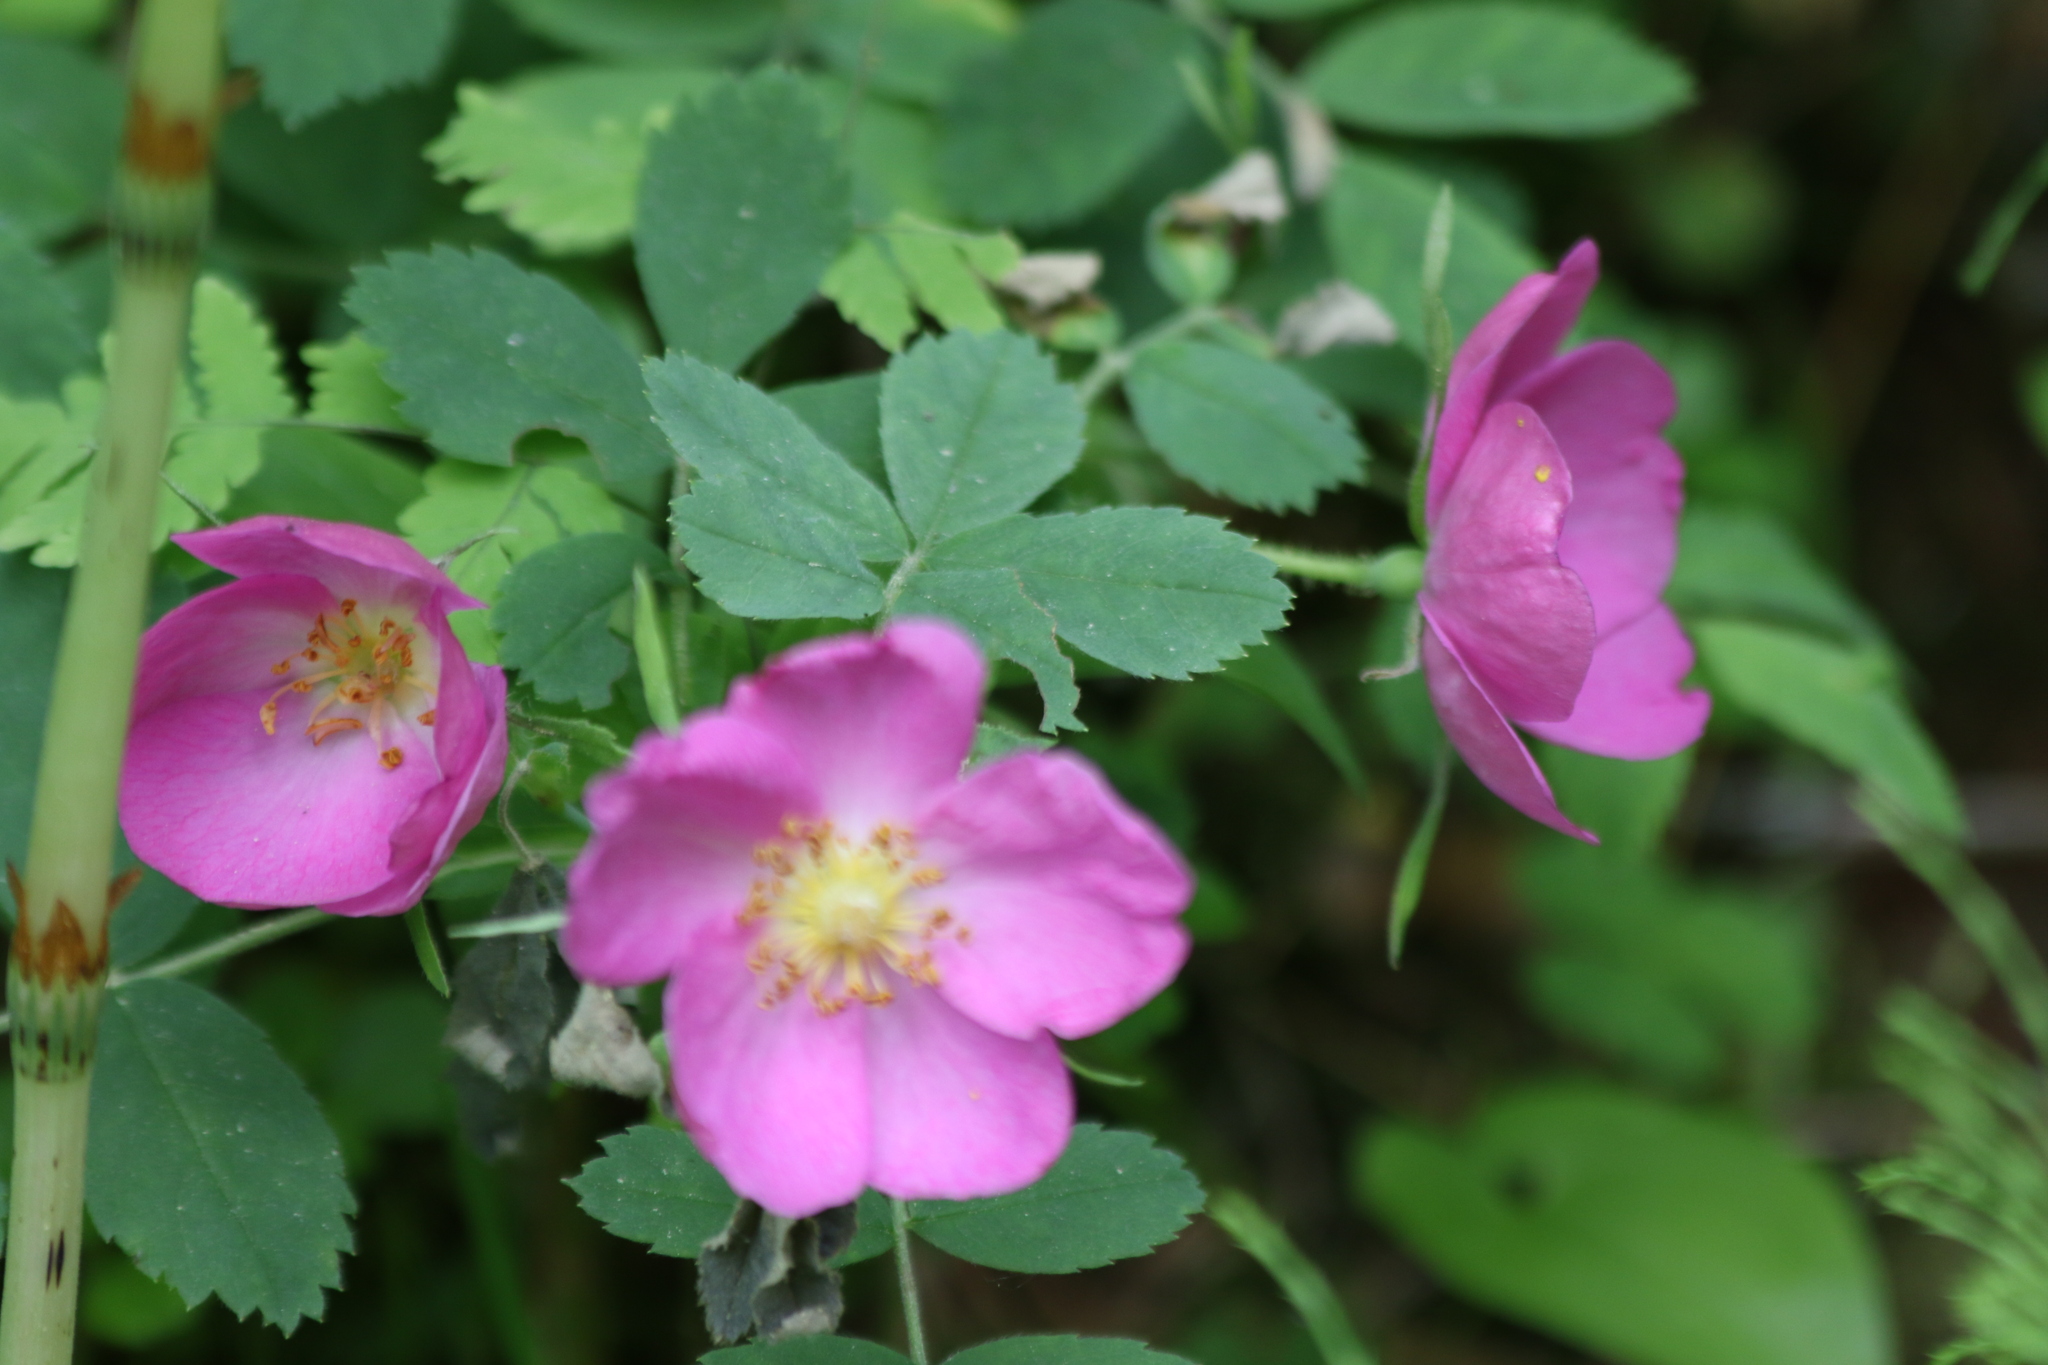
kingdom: Plantae
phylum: Tracheophyta
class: Magnoliopsida
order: Rosales
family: Rosaceae
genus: Rosa
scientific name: Rosa acicularis
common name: Prickly rose
